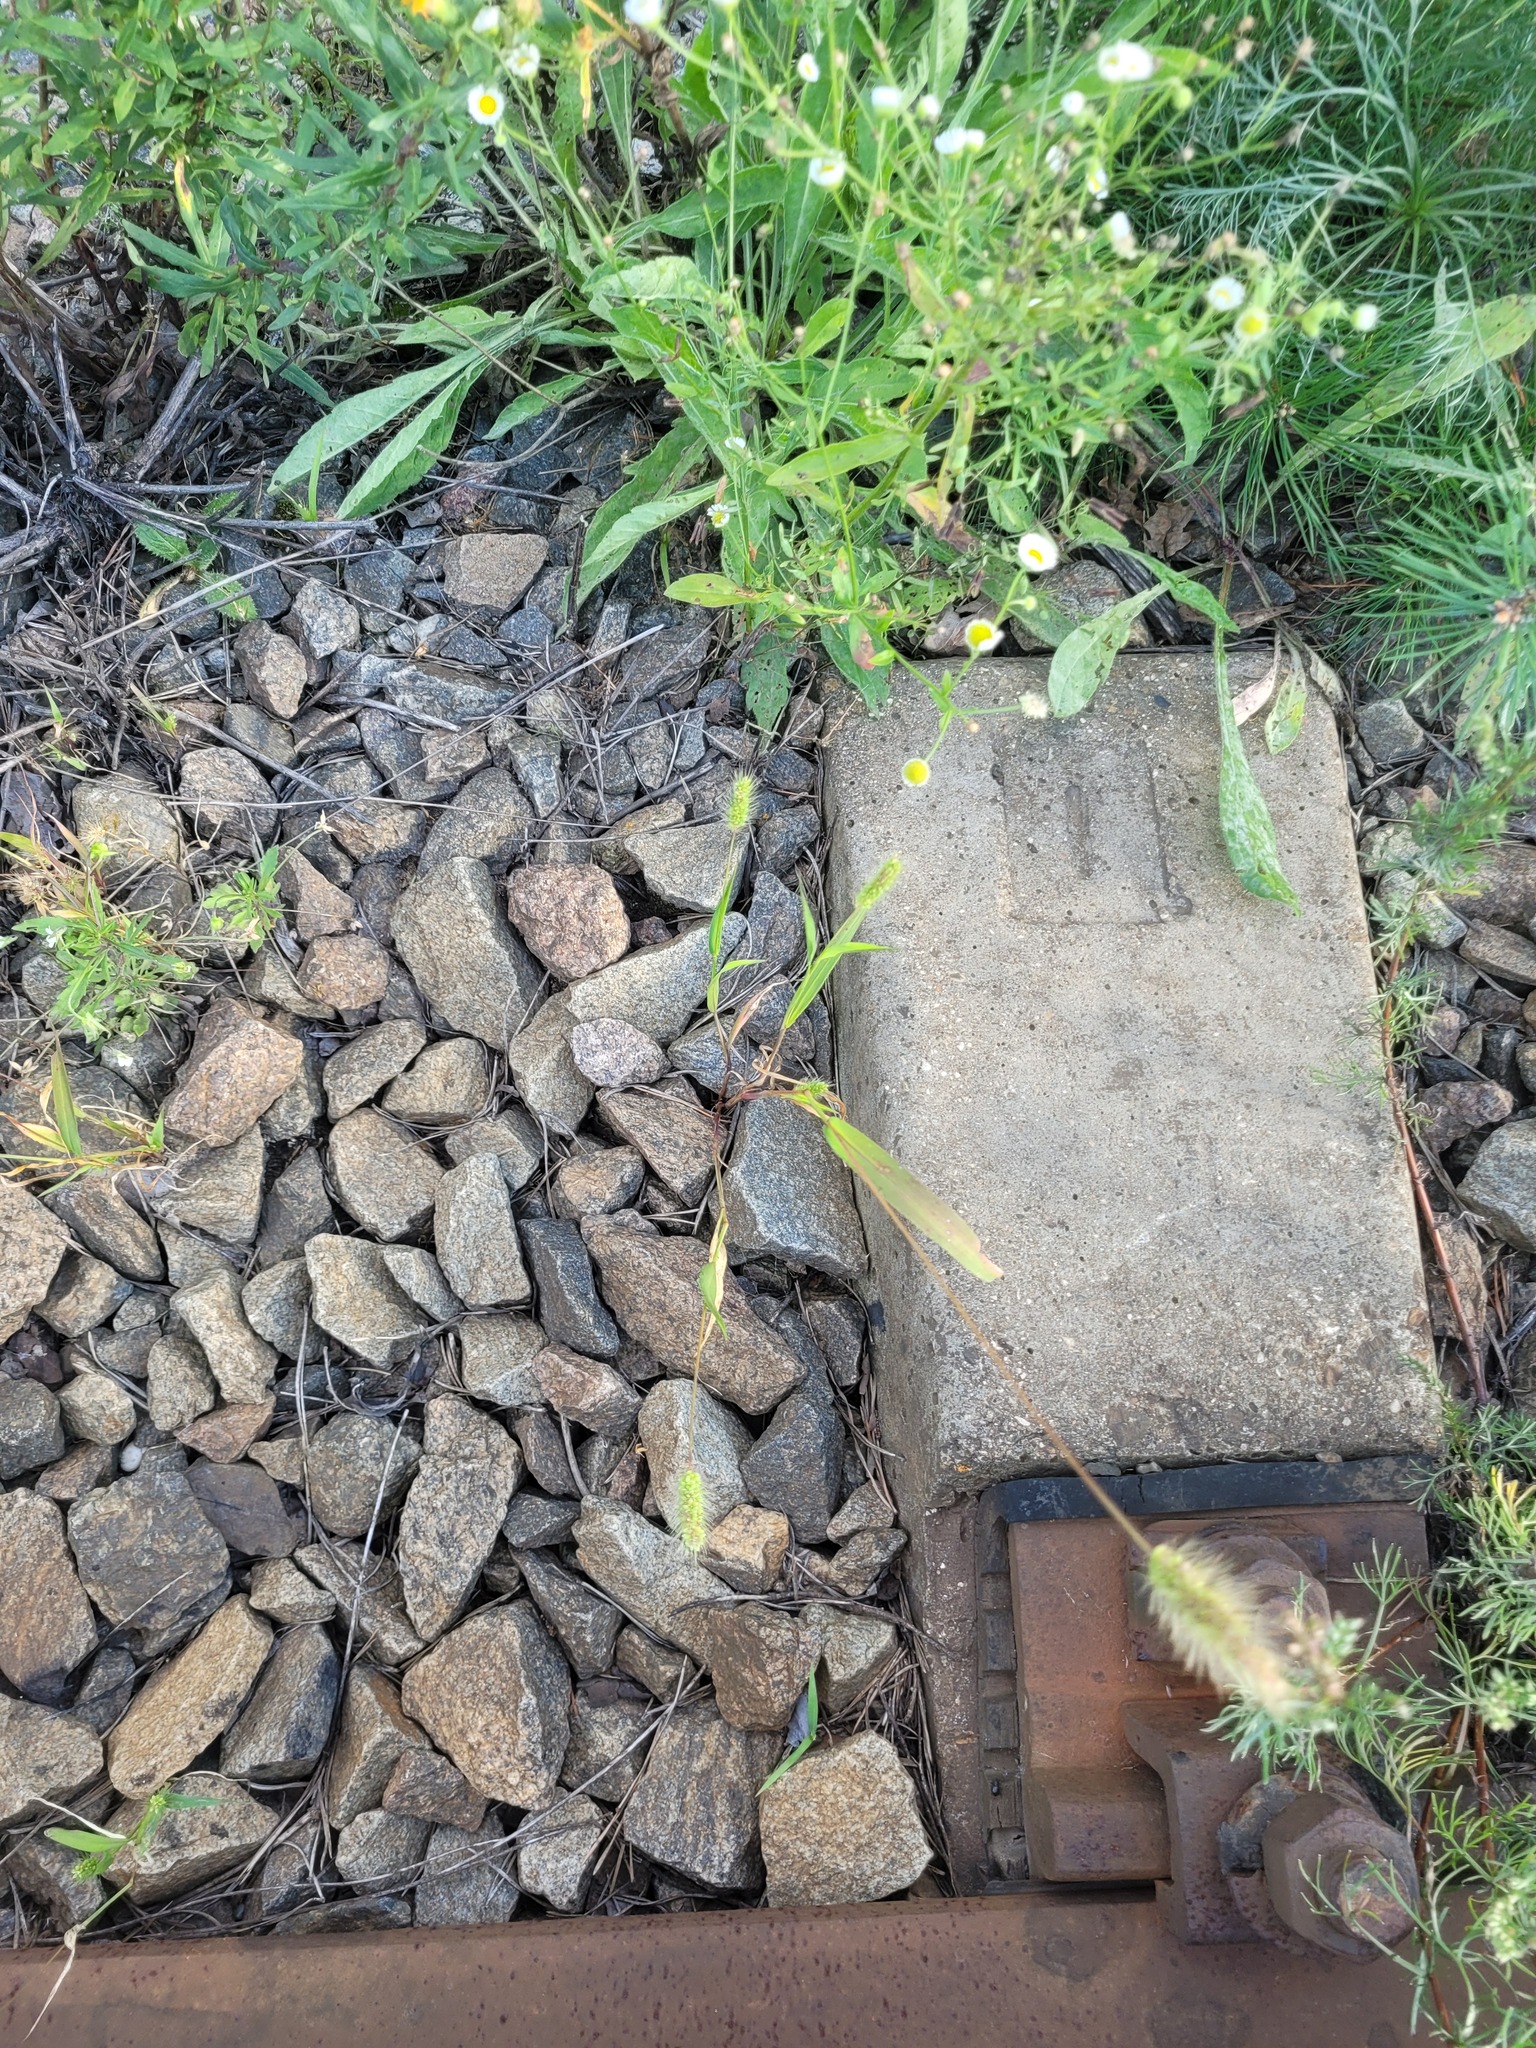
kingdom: Plantae
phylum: Tracheophyta
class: Liliopsida
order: Poales
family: Poaceae
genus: Setaria
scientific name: Setaria viridis
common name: Green bristlegrass
